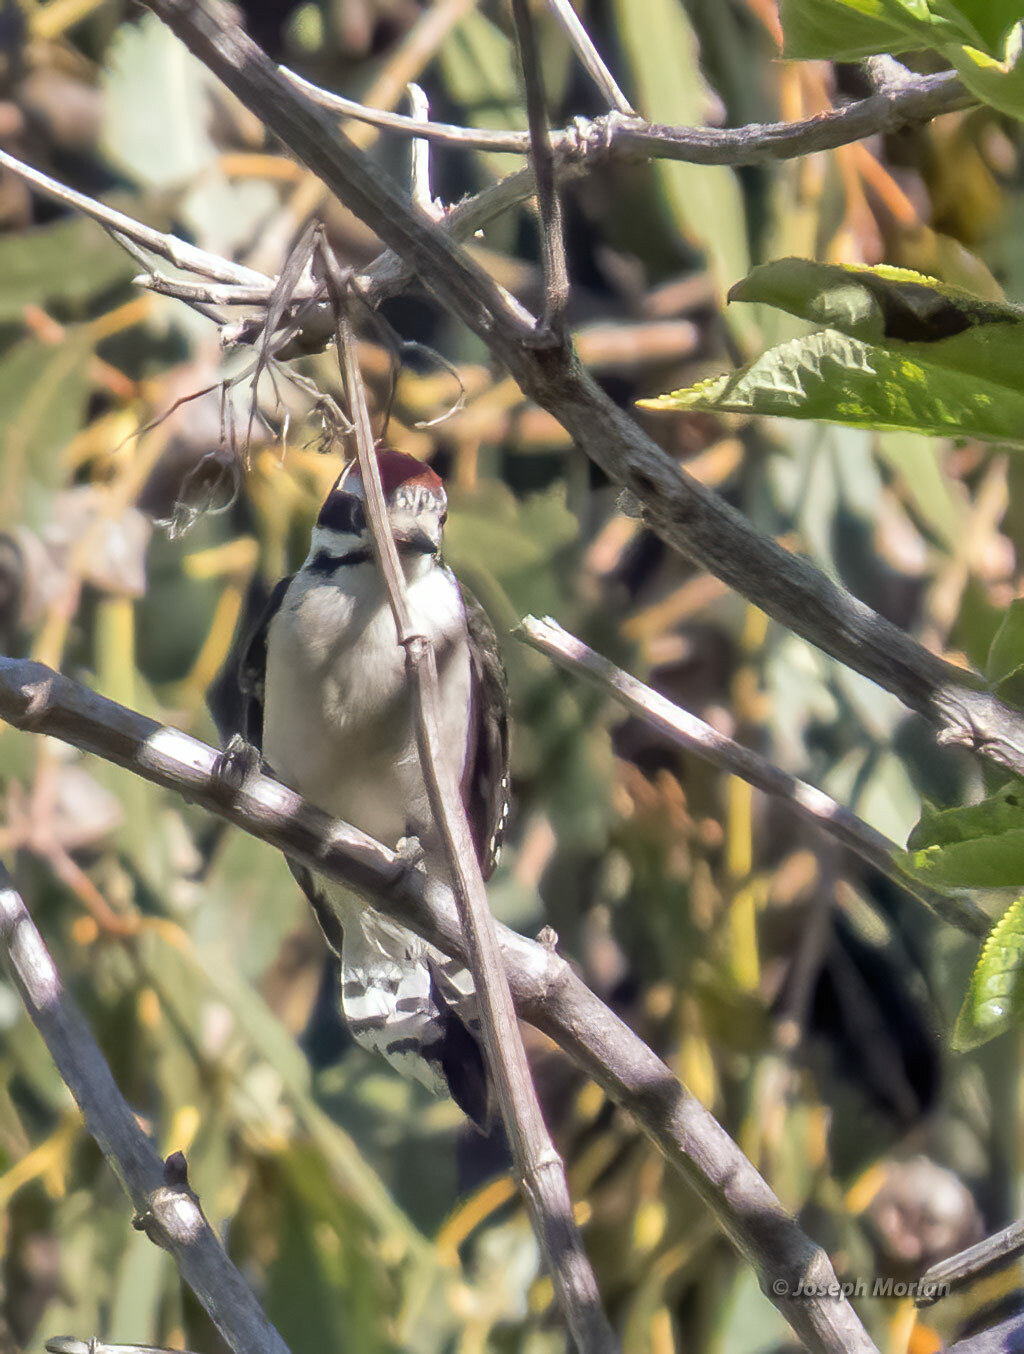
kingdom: Animalia
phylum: Chordata
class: Aves
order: Piciformes
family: Picidae
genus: Dryobates
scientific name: Dryobates pubescens
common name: Downy woodpecker
